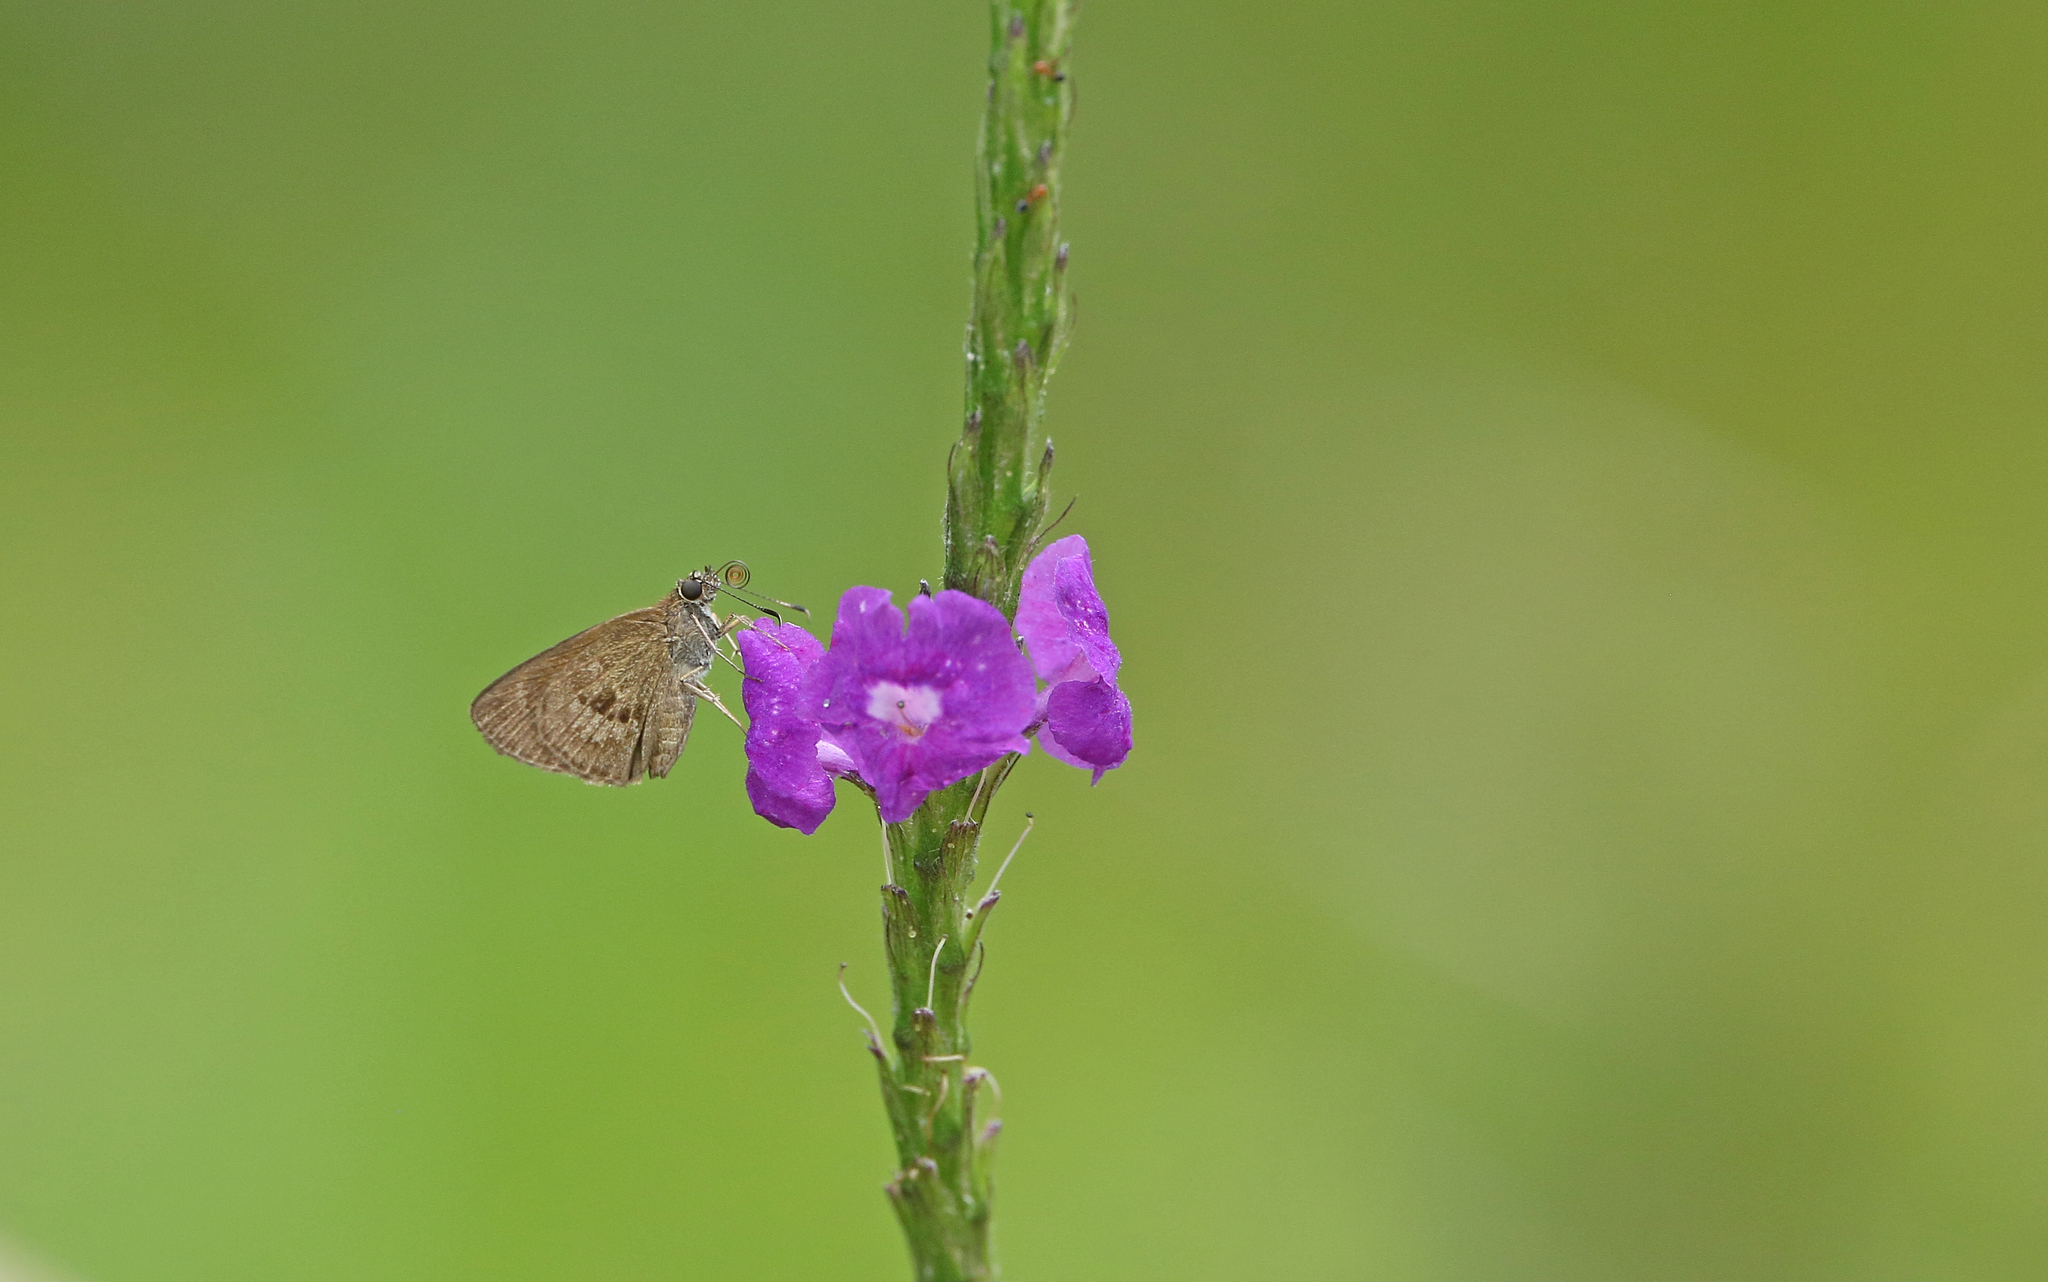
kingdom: Animalia
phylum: Arthropoda
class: Insecta
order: Lepidoptera
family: Hesperiidae
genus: Cymaenes
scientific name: Cymaenes tripunctata
